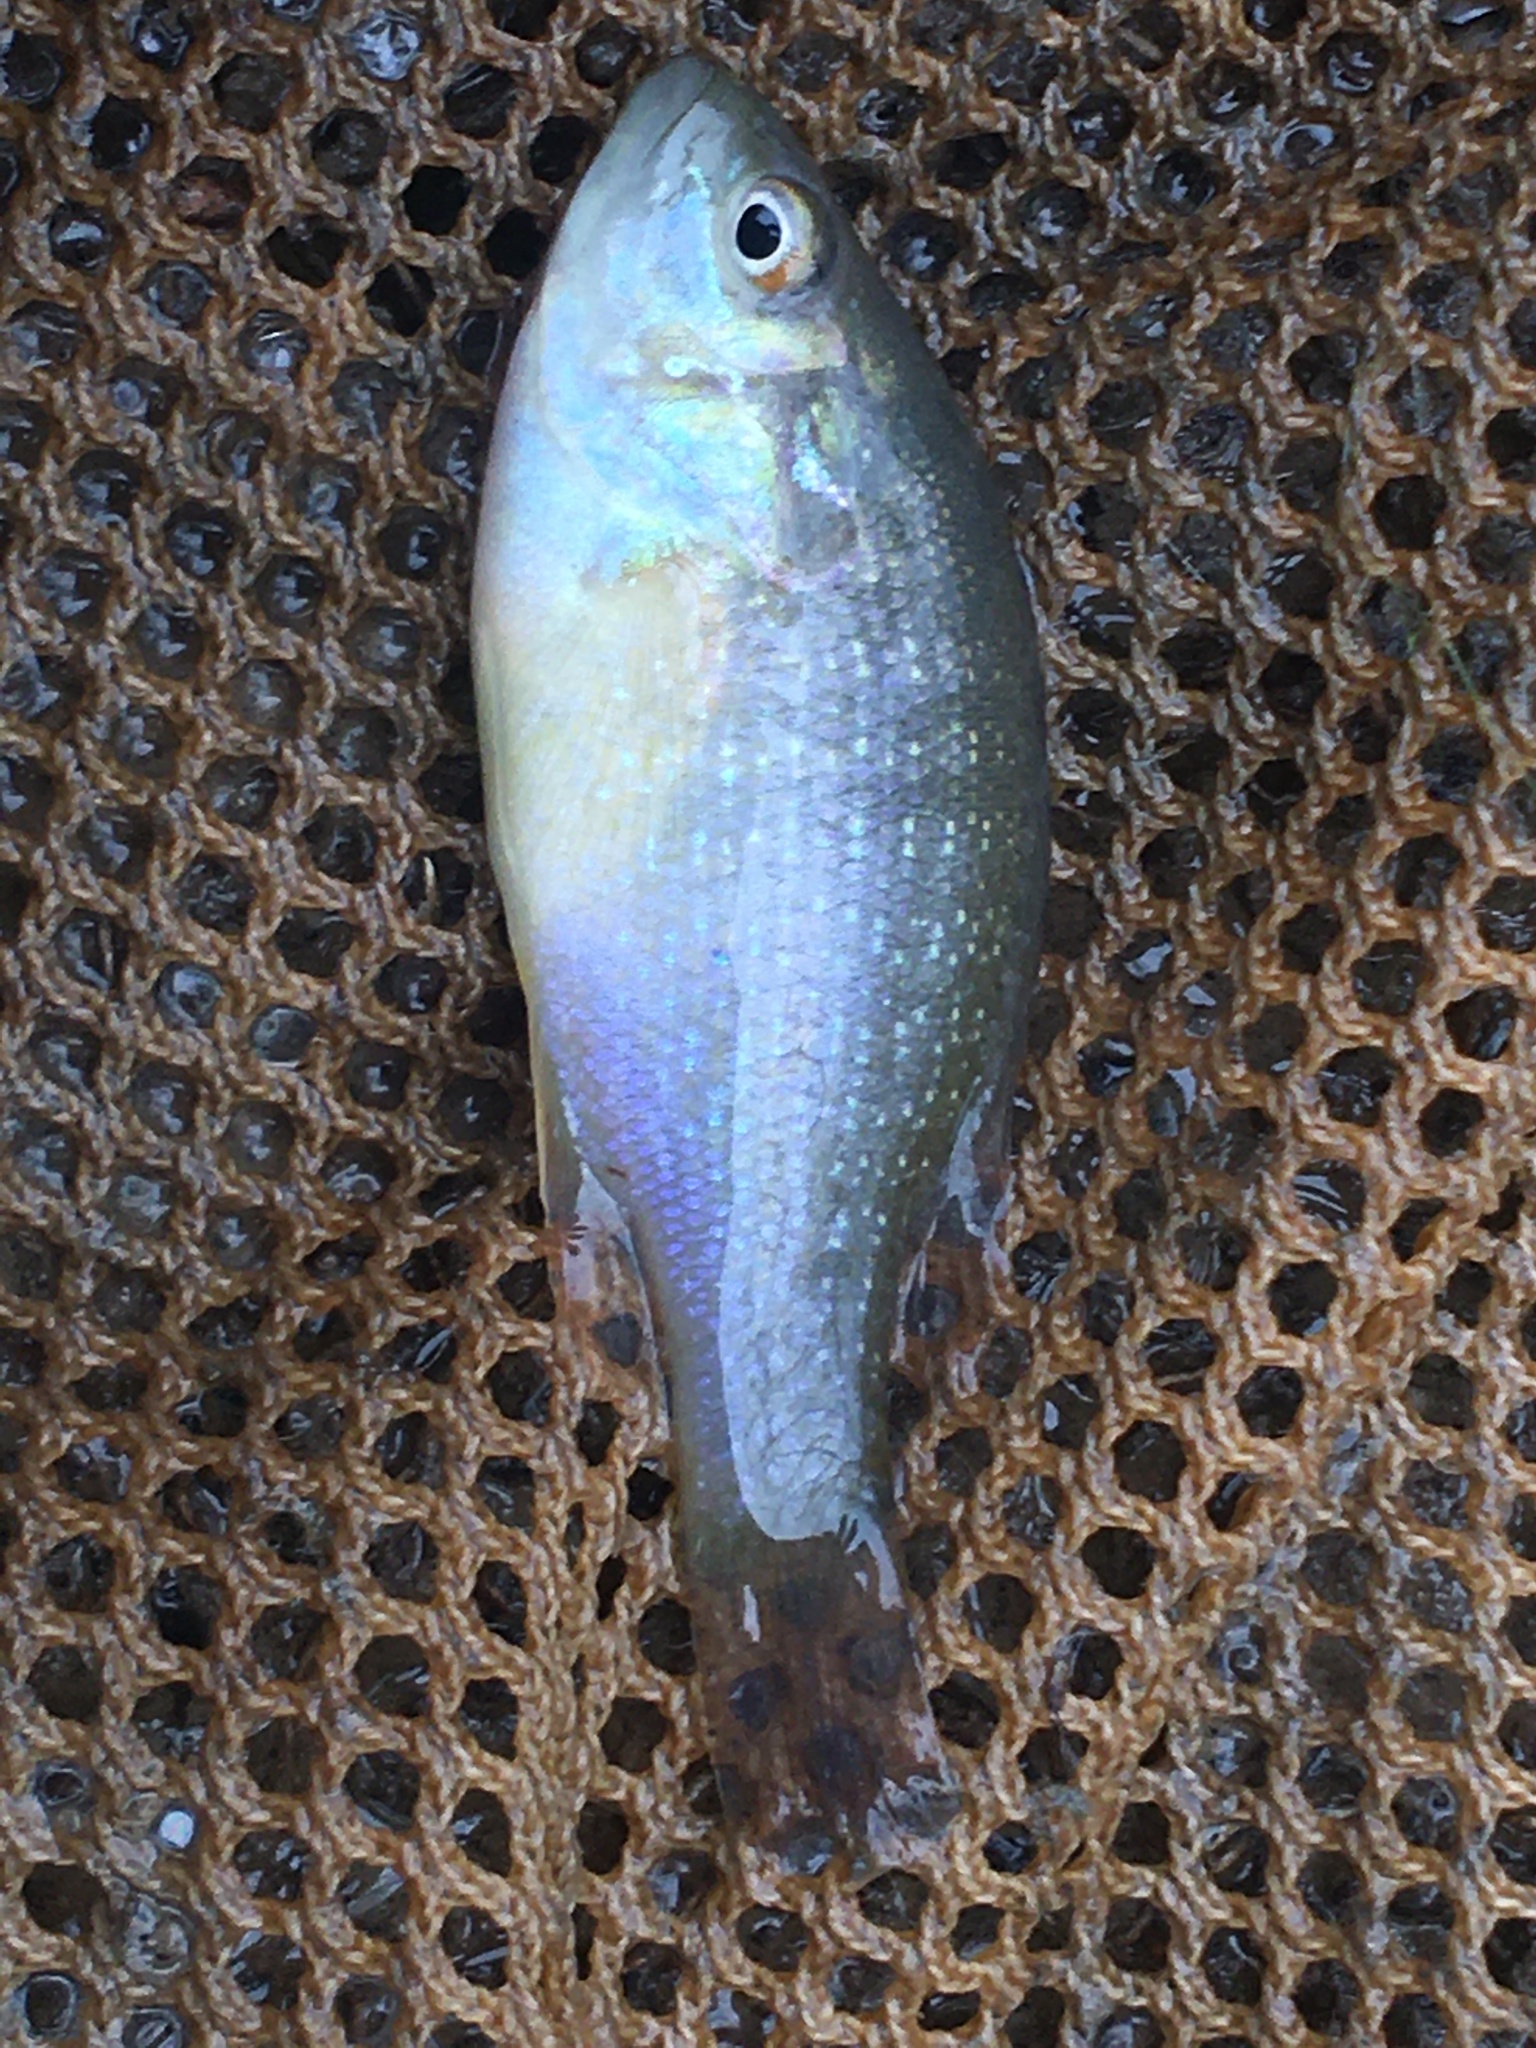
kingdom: Animalia
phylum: Chordata
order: Perciformes
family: Centrarchidae
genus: Lepomis
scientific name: Lepomis cyanellus
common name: Green sunfish
